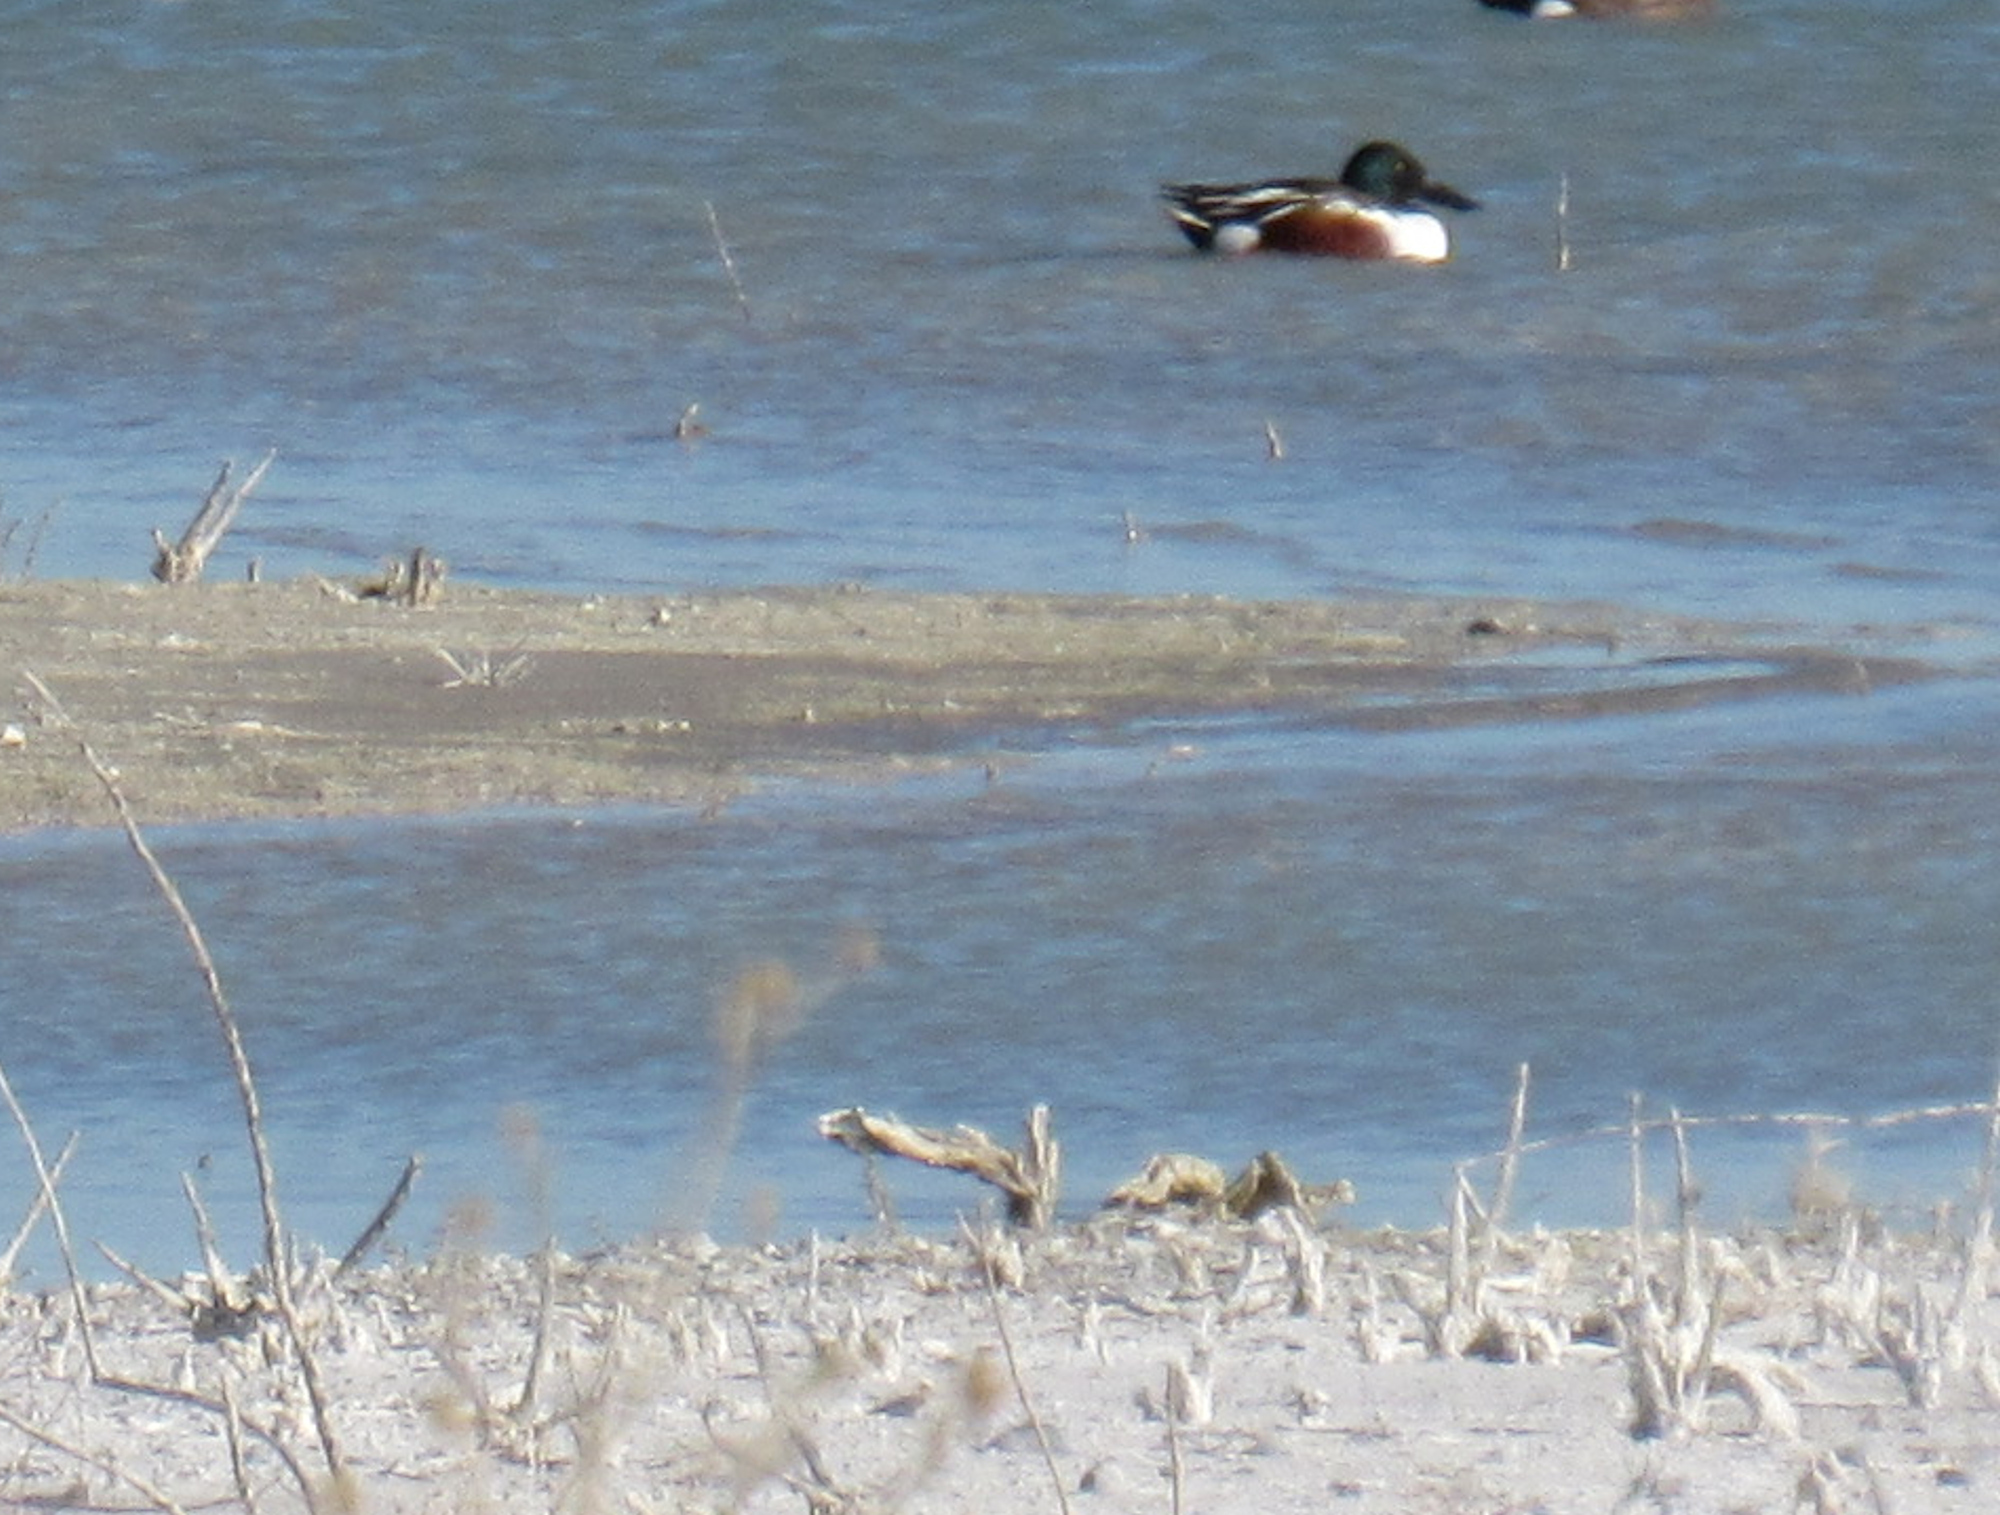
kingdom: Animalia
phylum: Chordata
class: Aves
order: Anseriformes
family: Anatidae
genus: Spatula
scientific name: Spatula clypeata
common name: Northern shoveler
